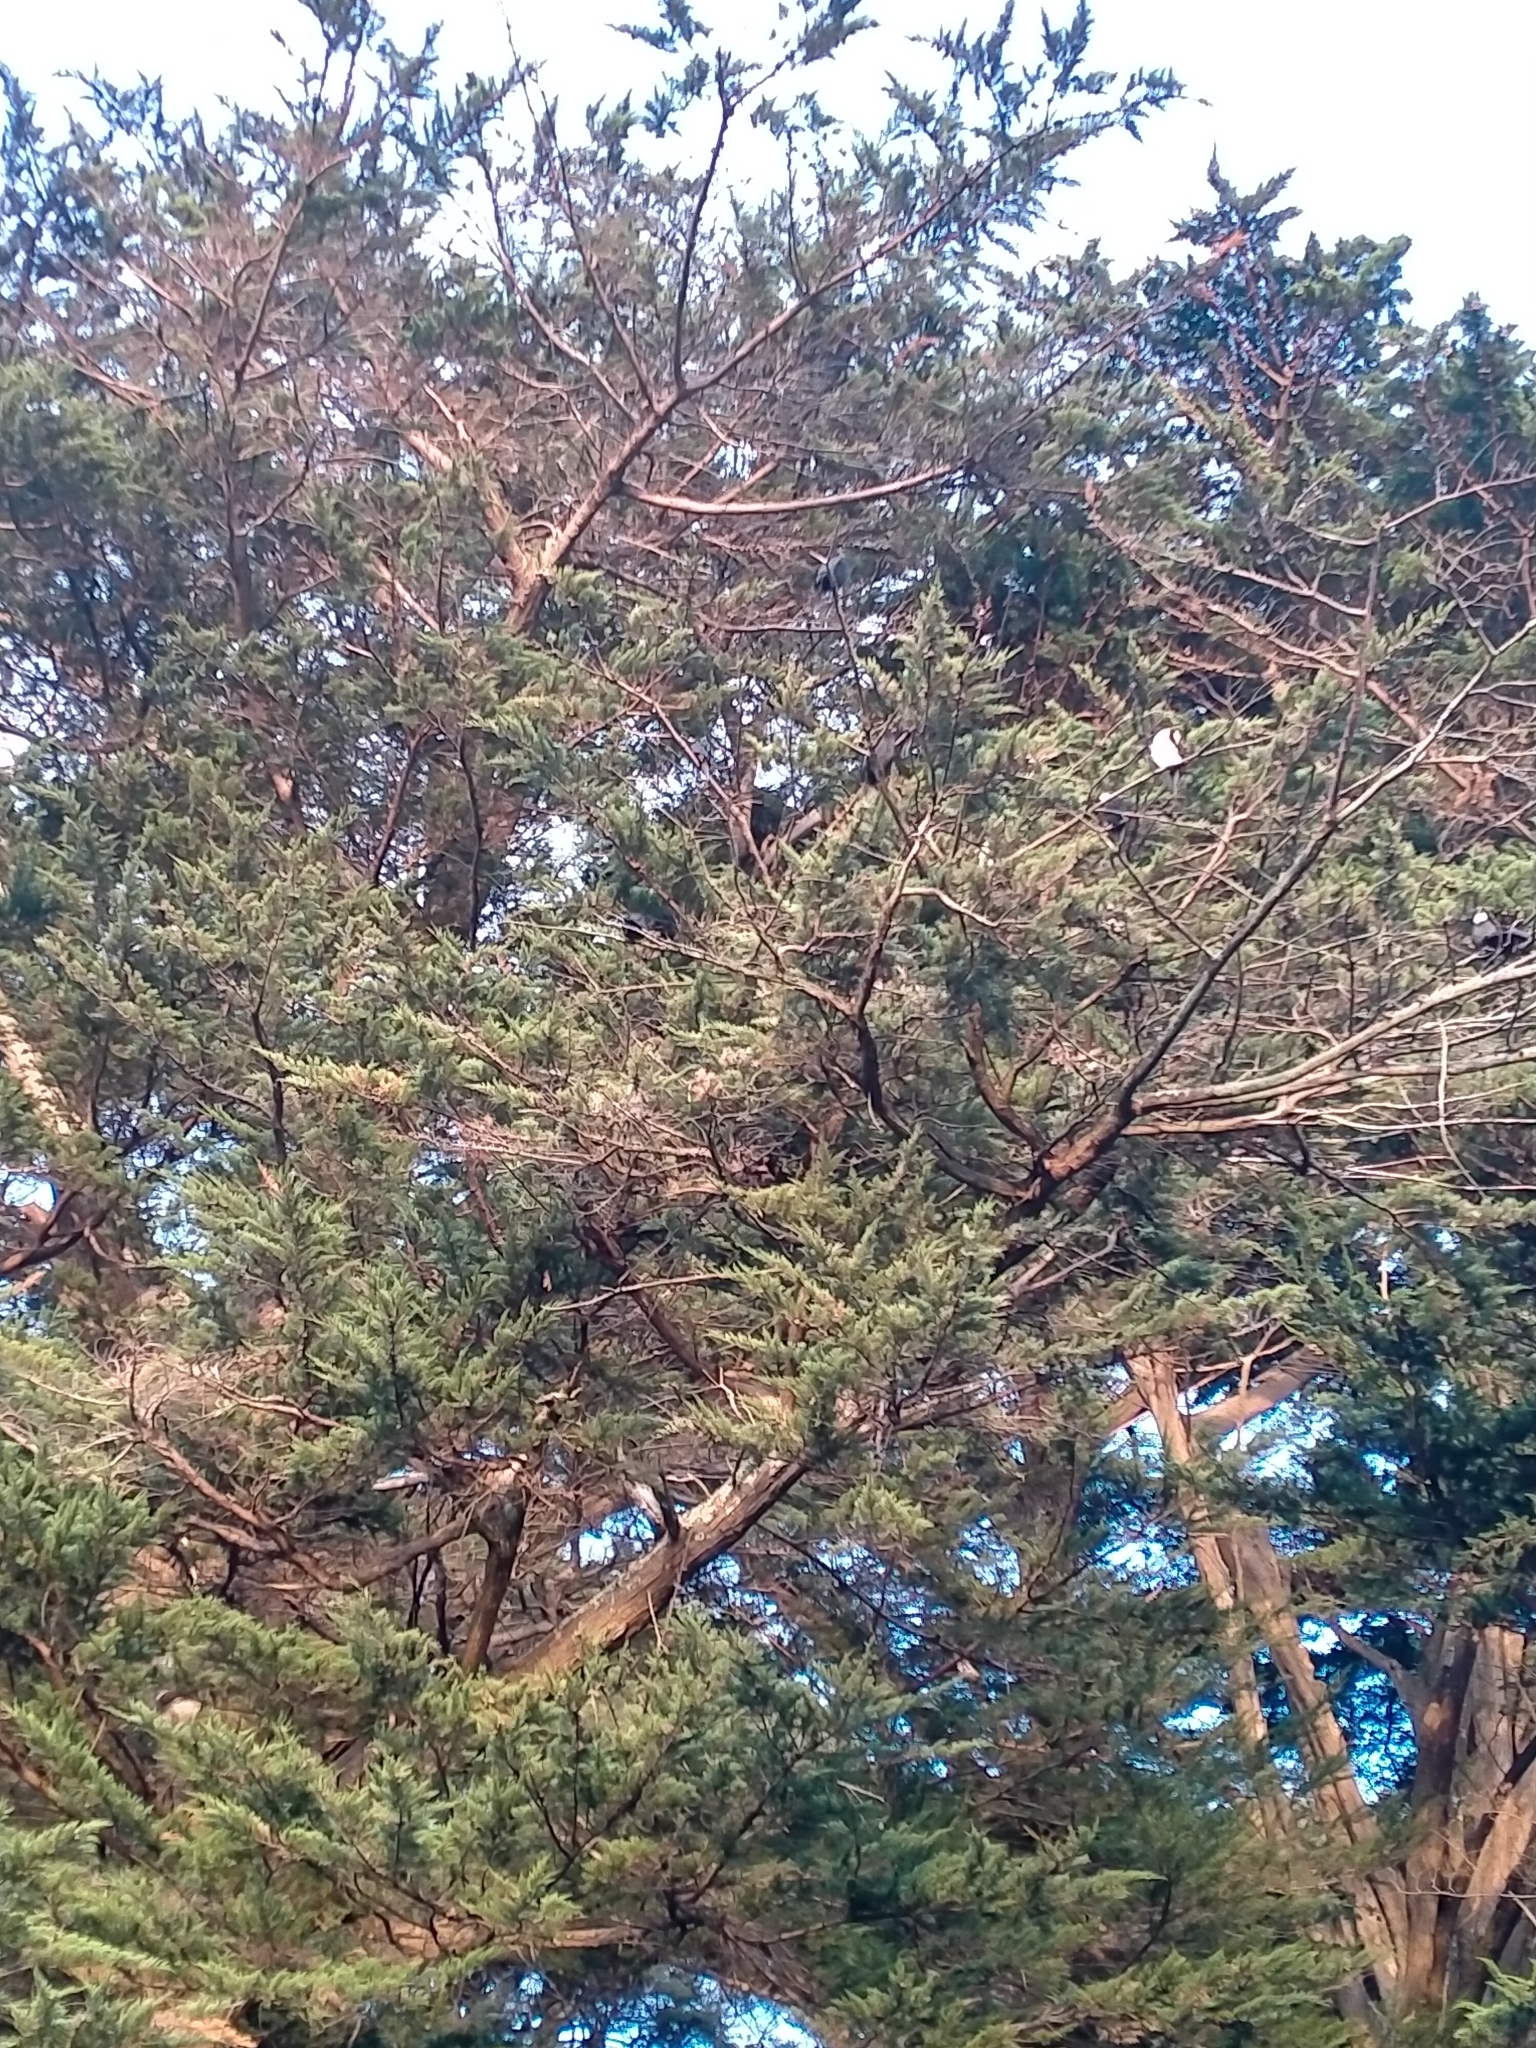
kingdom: Animalia
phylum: Chordata
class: Aves
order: Suliformes
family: Phalacrocoracidae
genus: Phalacrocorax
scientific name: Phalacrocorax varius
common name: Pied cormorant
